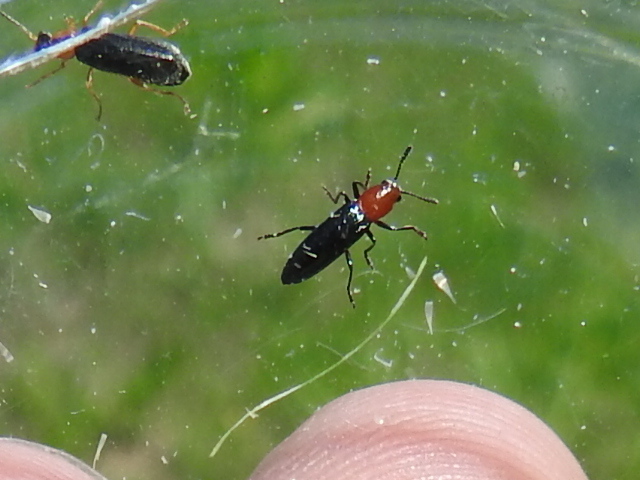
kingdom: Animalia
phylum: Arthropoda
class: Insecta
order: Coleoptera
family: Erotylidae
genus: Languria
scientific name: Languria laeta
